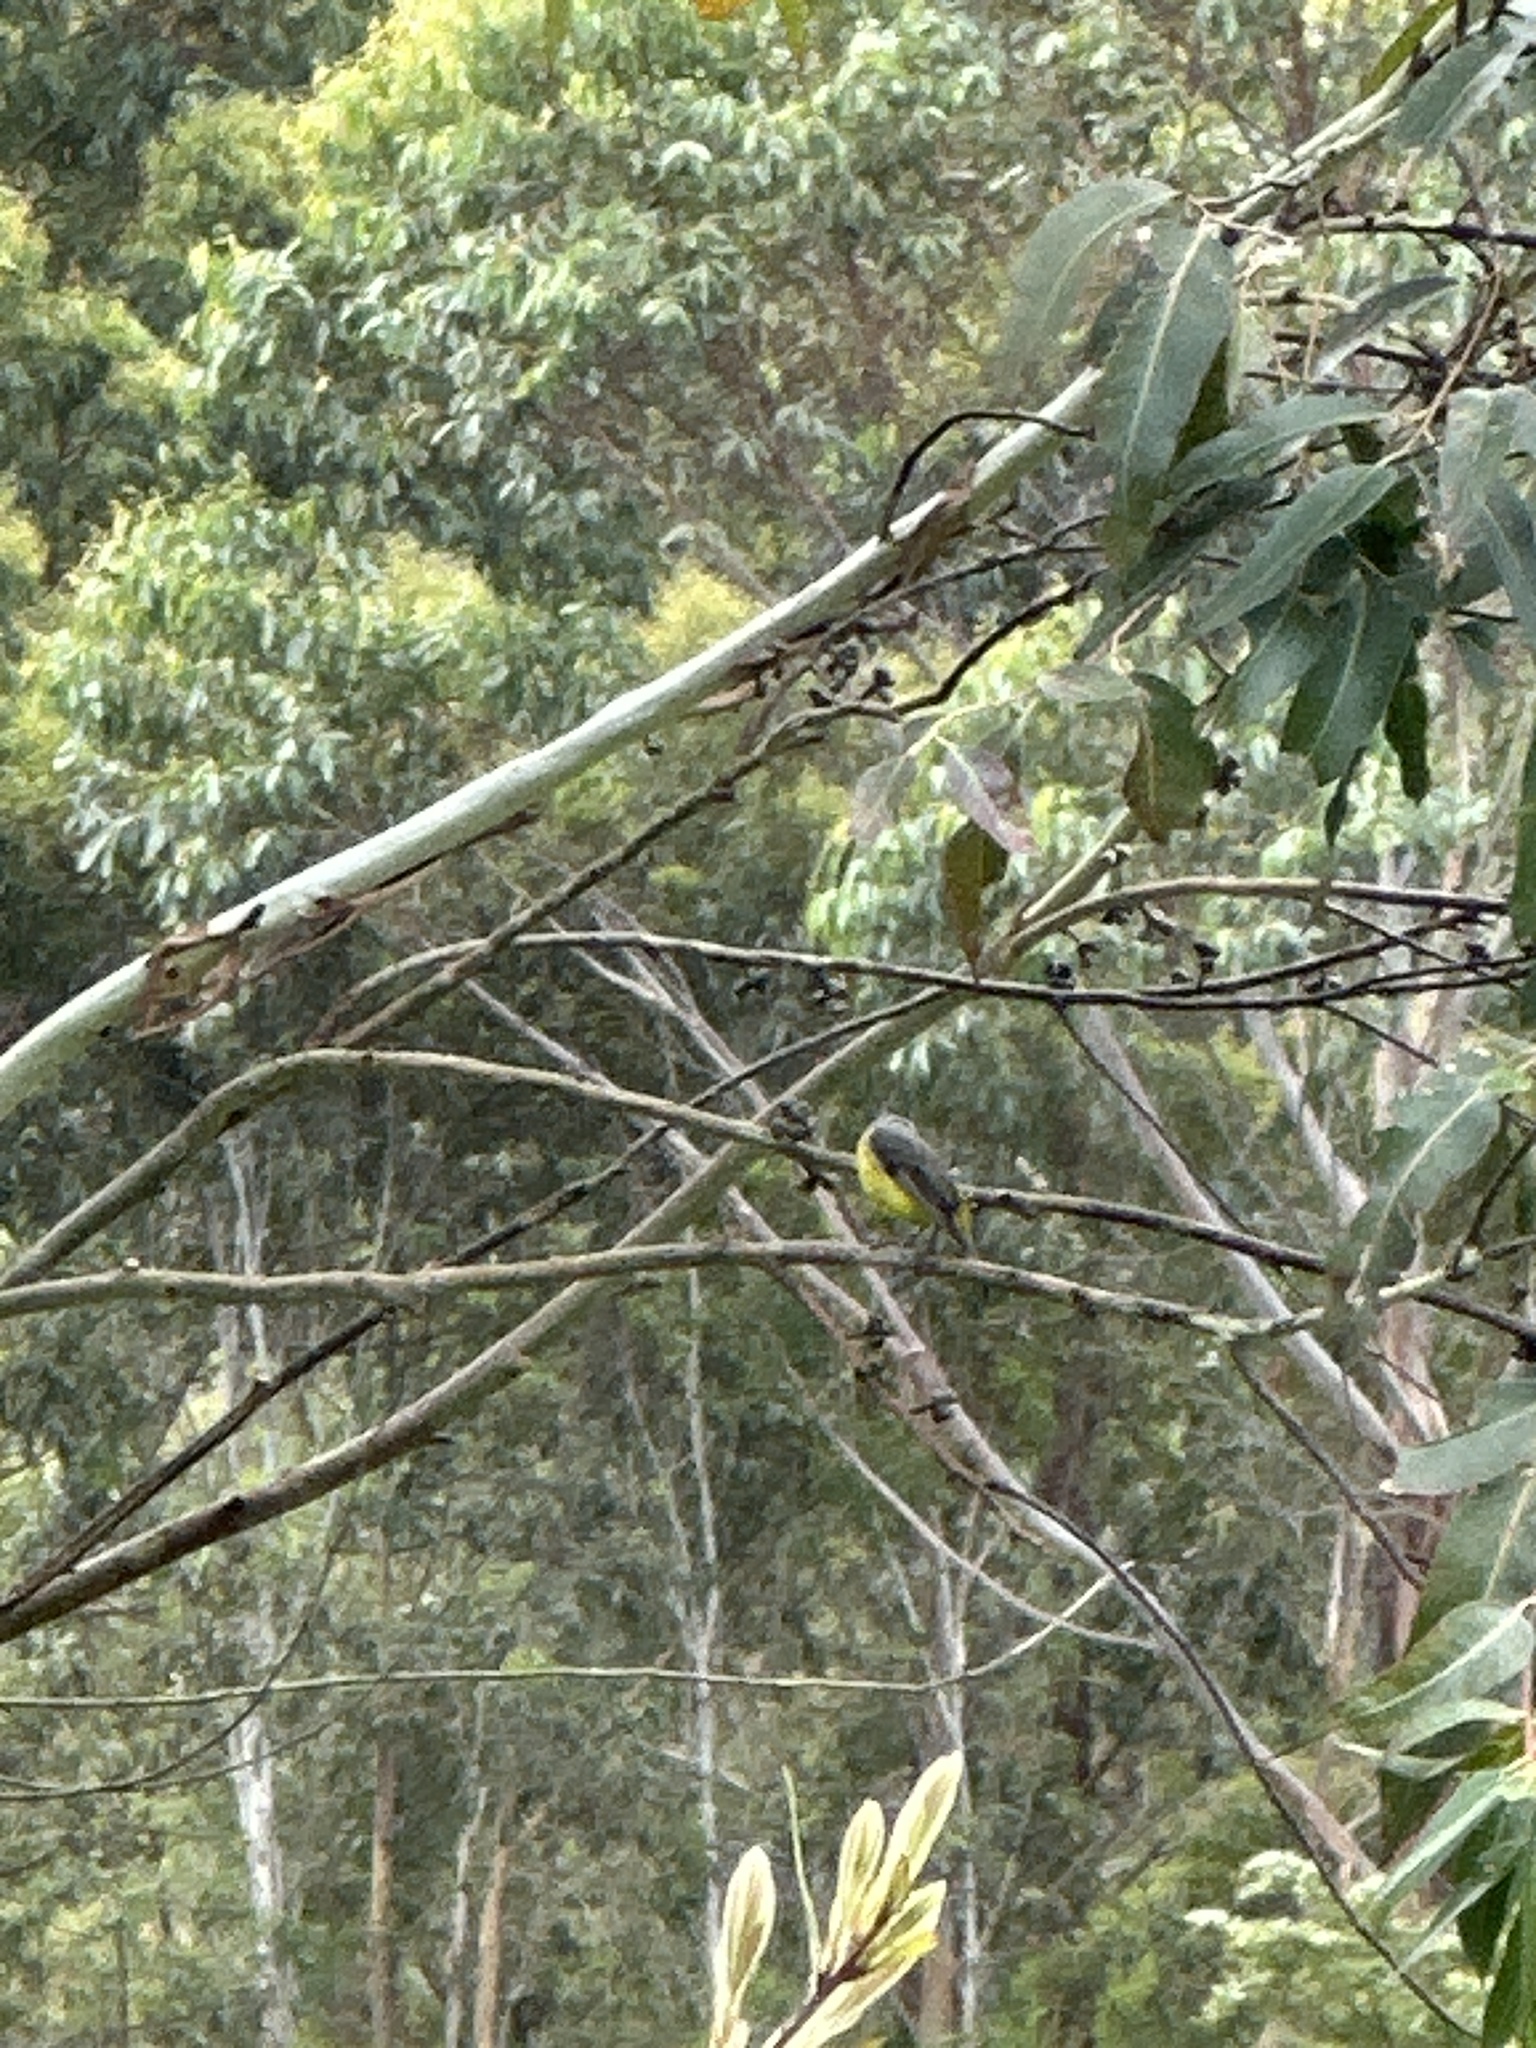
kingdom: Animalia
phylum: Chordata
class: Aves
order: Passeriformes
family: Petroicidae
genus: Eopsaltria
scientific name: Eopsaltria australis
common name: Eastern yellow robin
